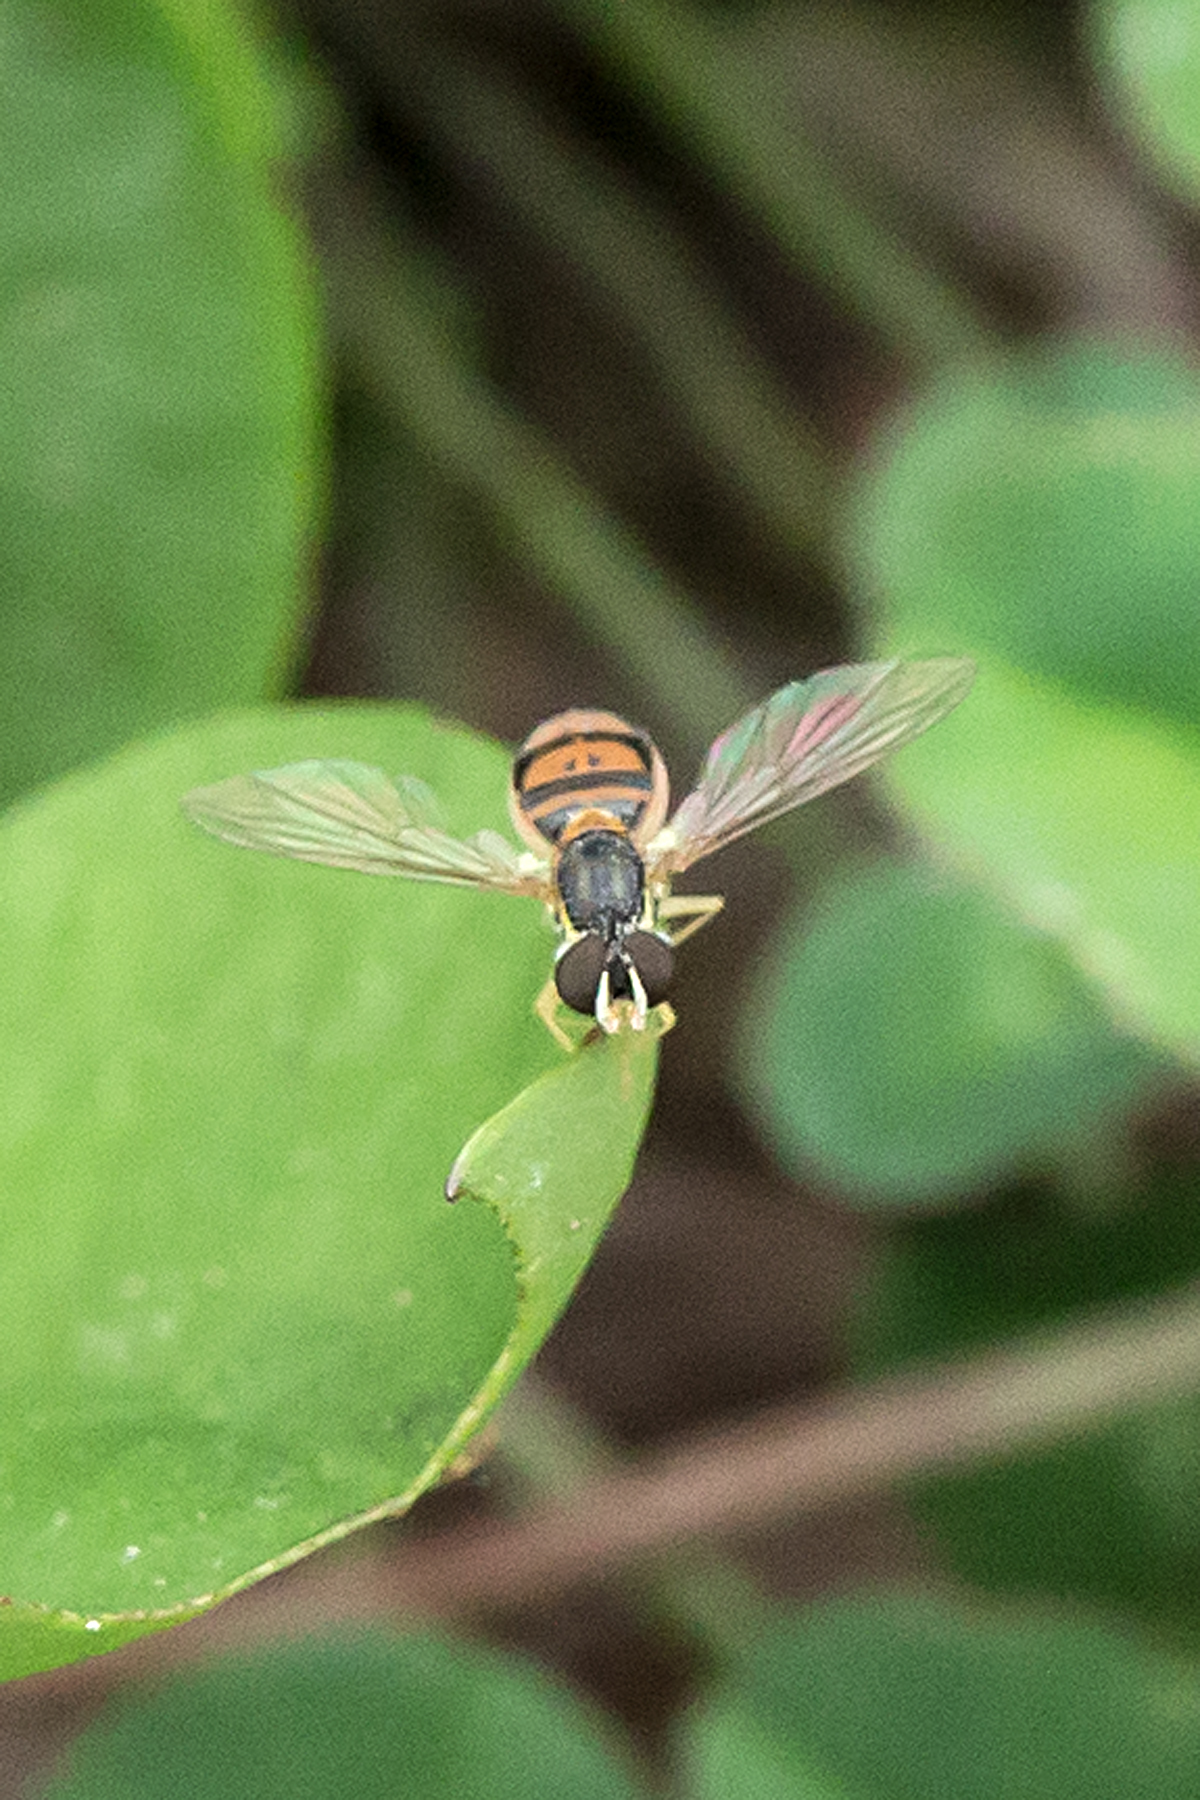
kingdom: Animalia
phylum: Arthropoda
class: Insecta
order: Diptera
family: Syrphidae
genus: Toxomerus
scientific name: Toxomerus marginatus
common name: Syrphid fly
